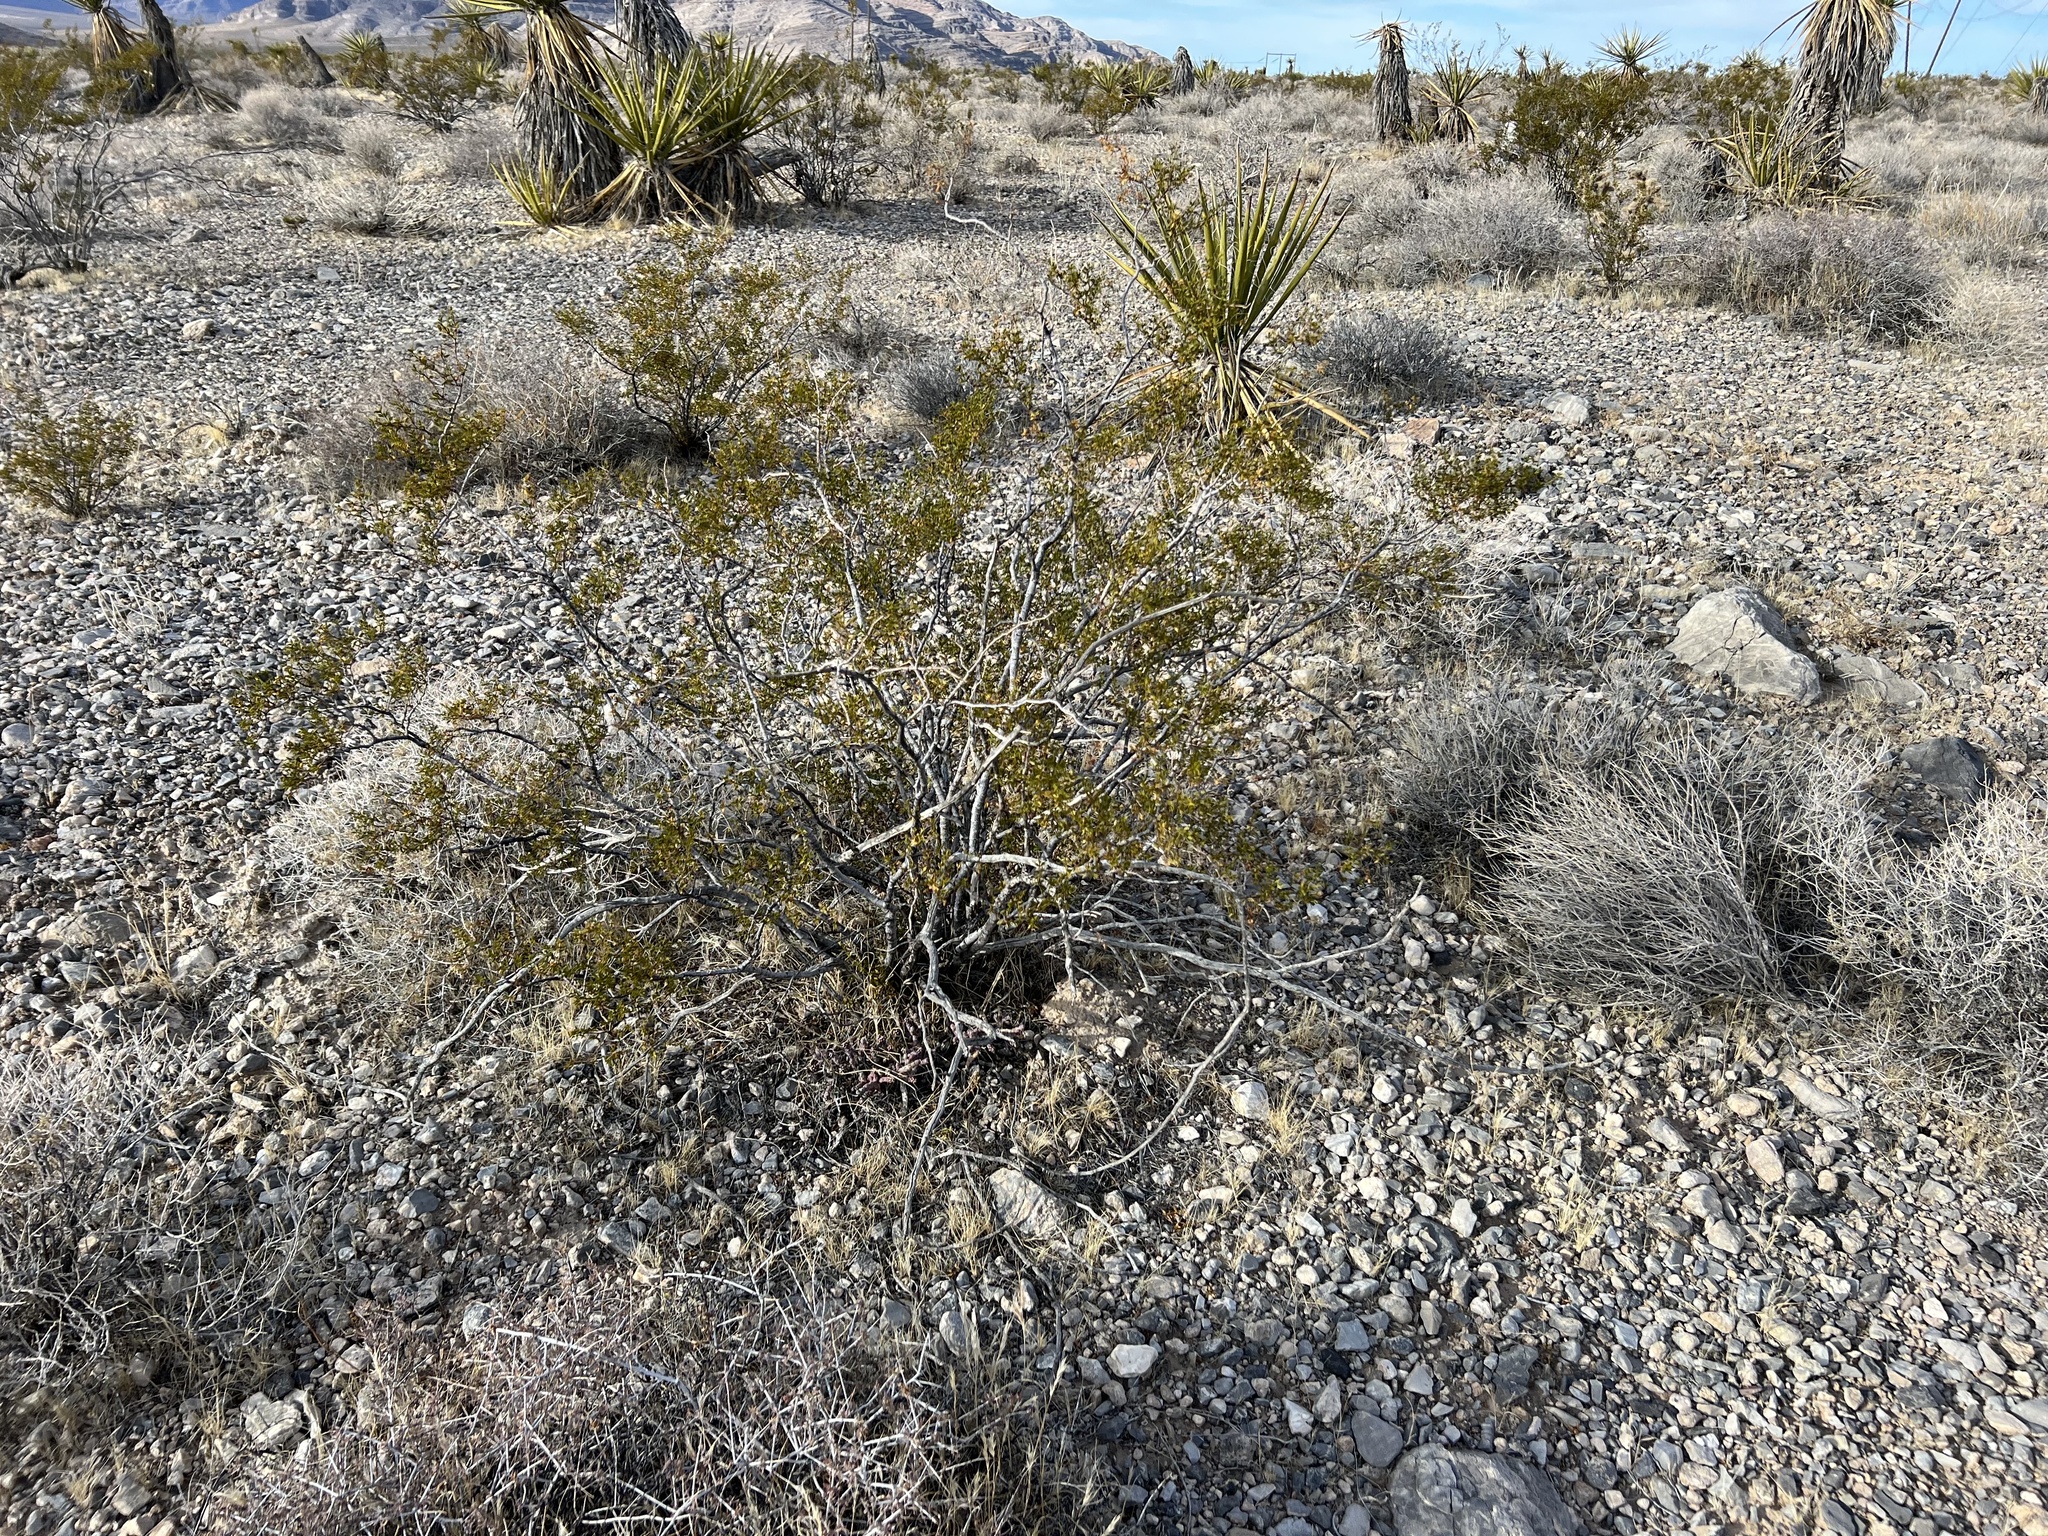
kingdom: Plantae
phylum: Tracheophyta
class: Magnoliopsida
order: Zygophyllales
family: Zygophyllaceae
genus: Larrea
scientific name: Larrea tridentata
